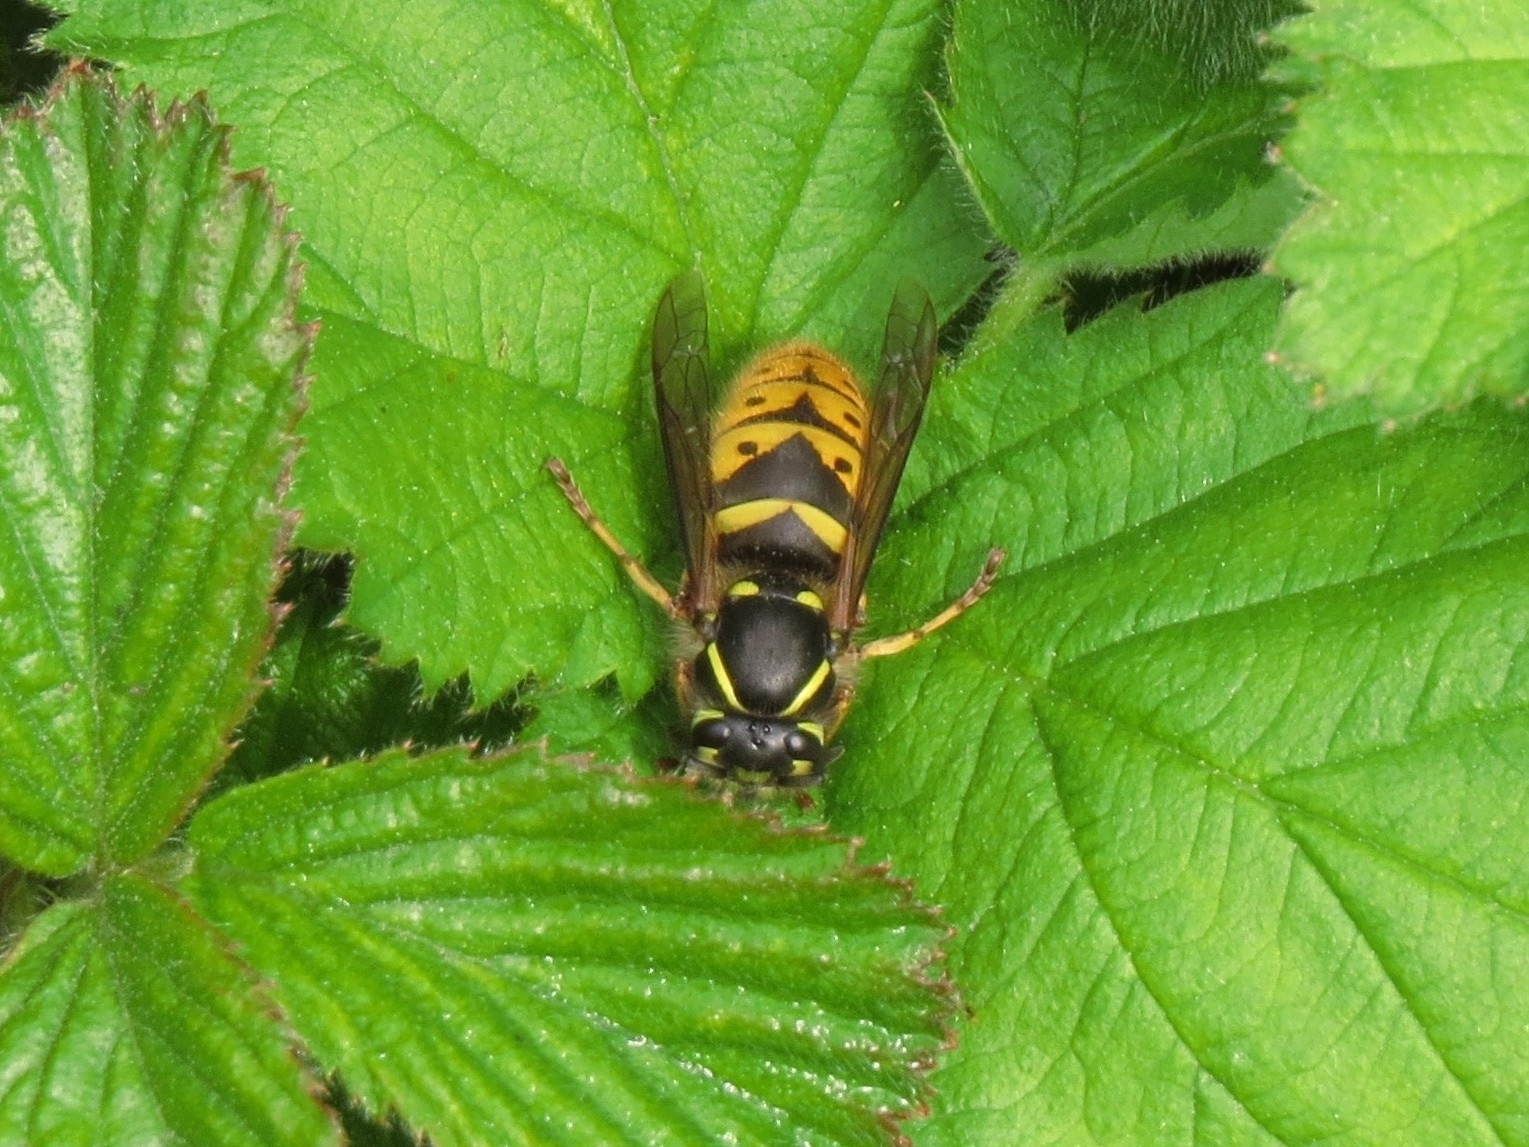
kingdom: Animalia
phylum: Arthropoda
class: Insecta
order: Hymenoptera
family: Vespidae
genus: Vespula
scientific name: Vespula vulgaris
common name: Common wasp
